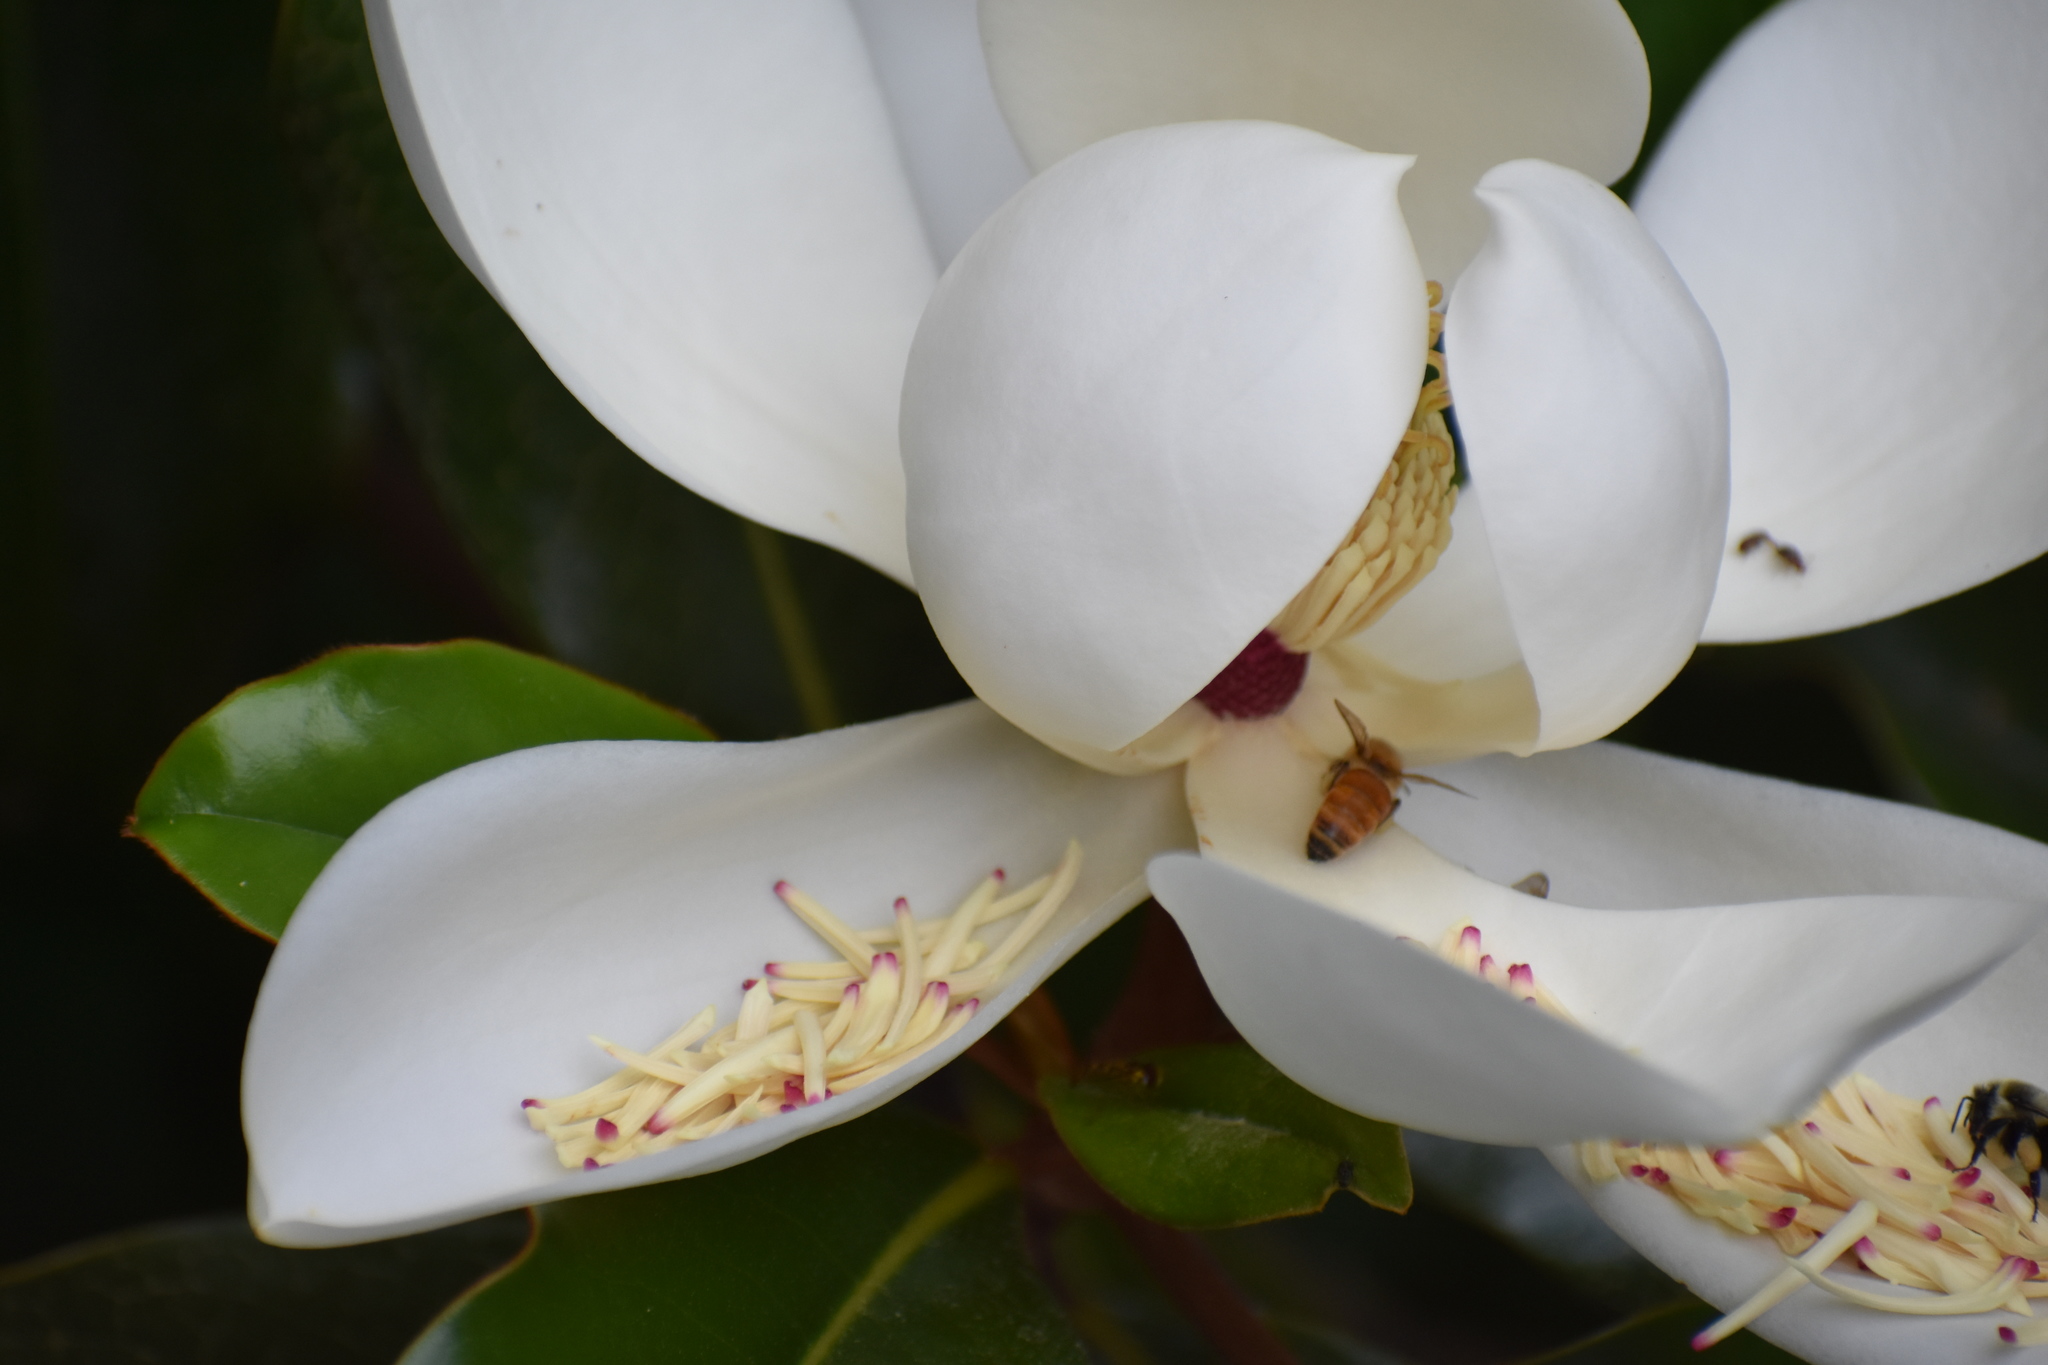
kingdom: Animalia
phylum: Arthropoda
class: Insecta
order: Hymenoptera
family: Apidae
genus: Apis
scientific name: Apis mellifera
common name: Honey bee
